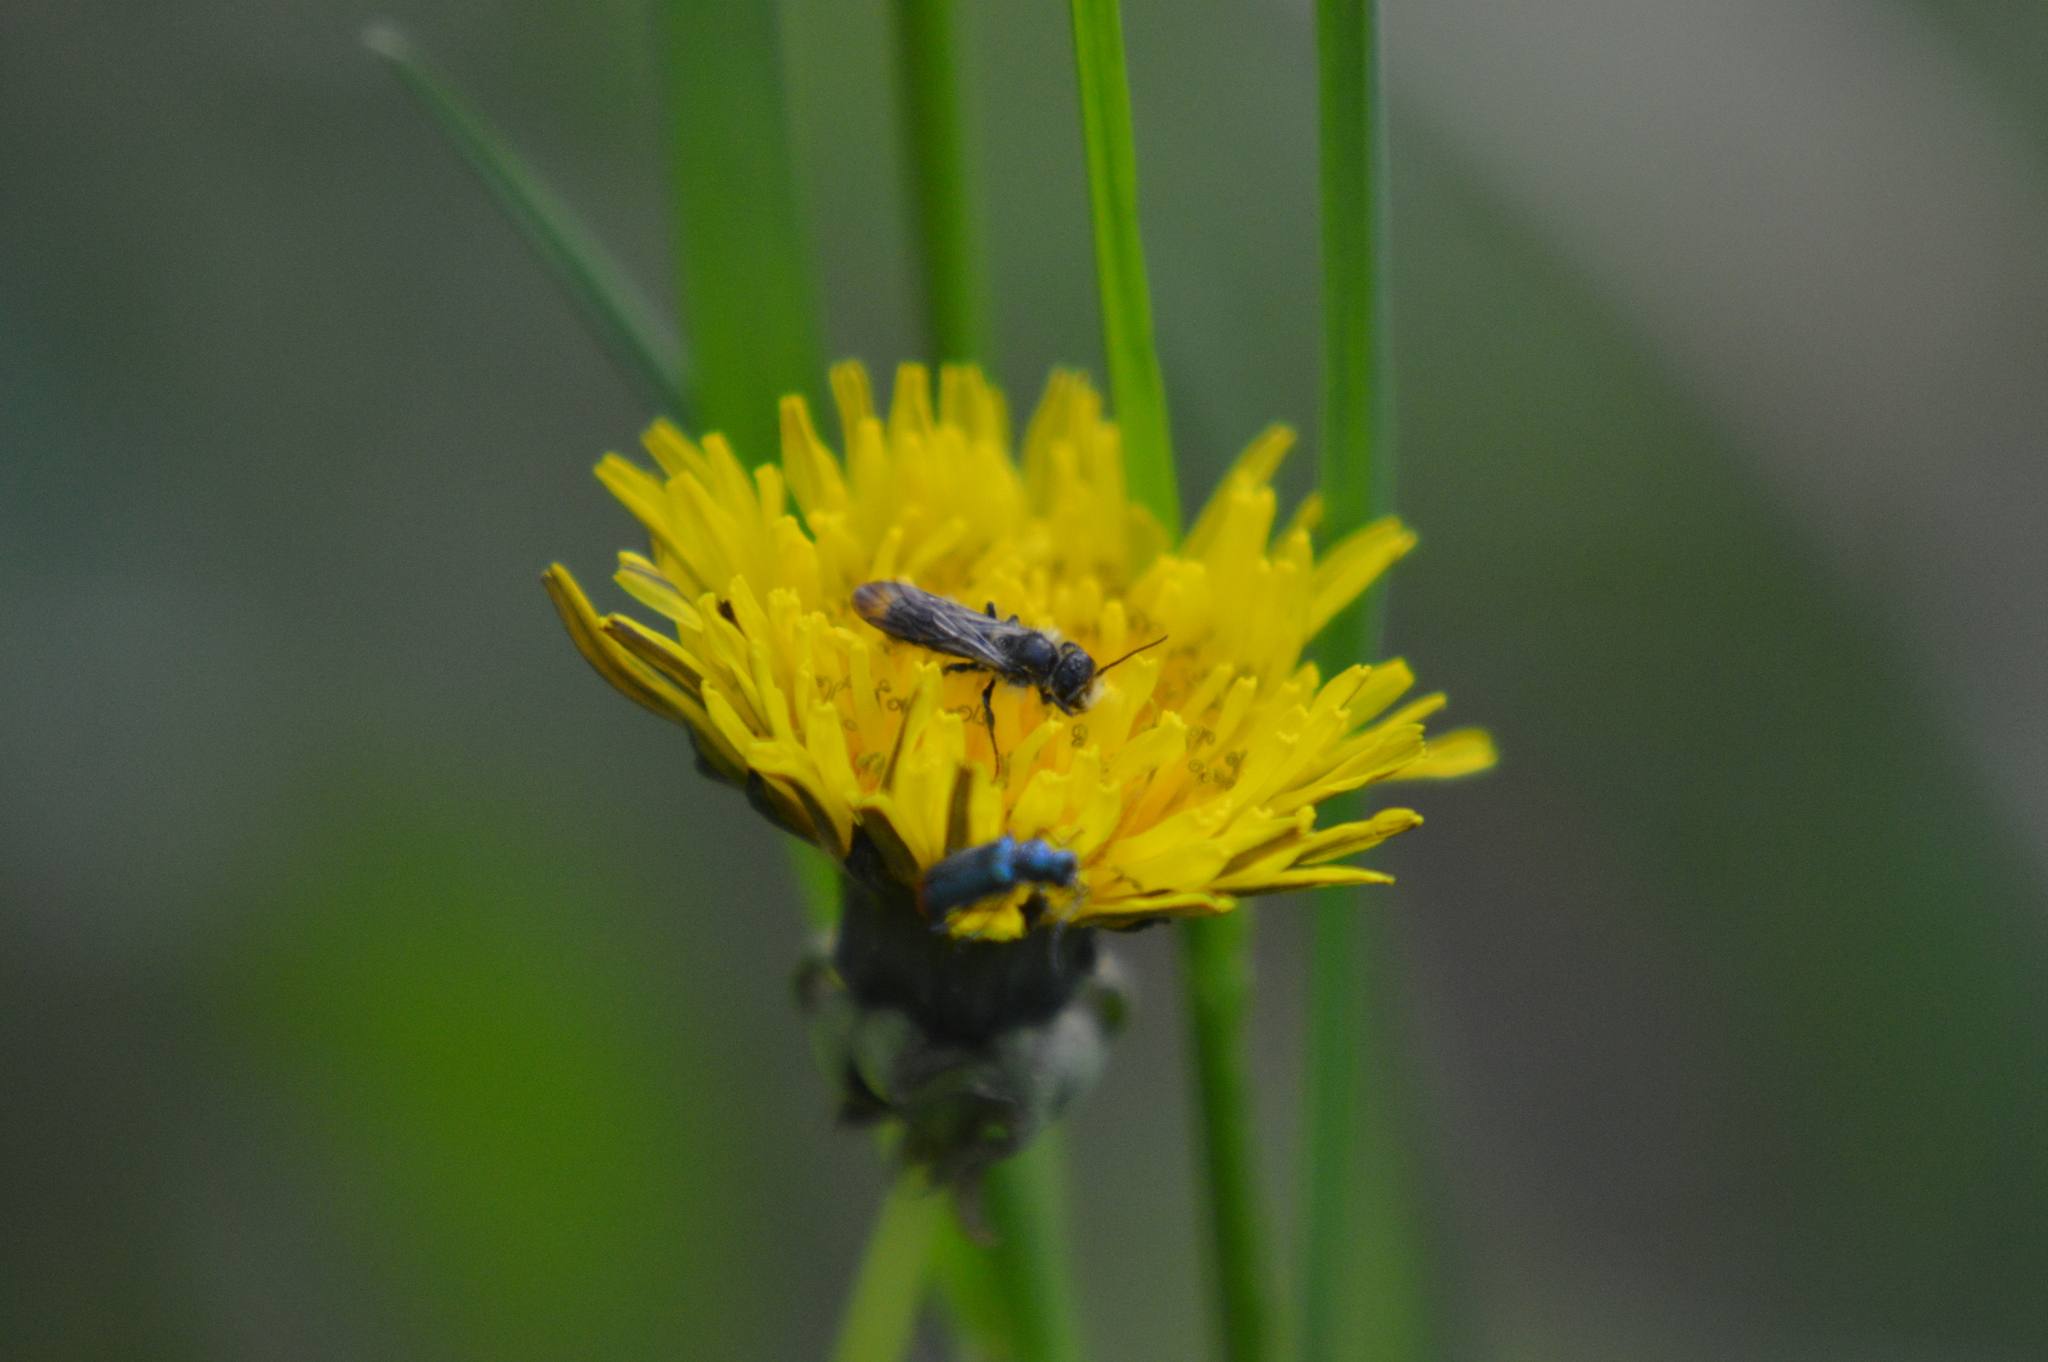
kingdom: Animalia
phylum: Arthropoda
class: Insecta
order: Hymenoptera
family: Megachilidae
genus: Chelostoma
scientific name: Chelostoma florisomne
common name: Sleepy carpenter bee
